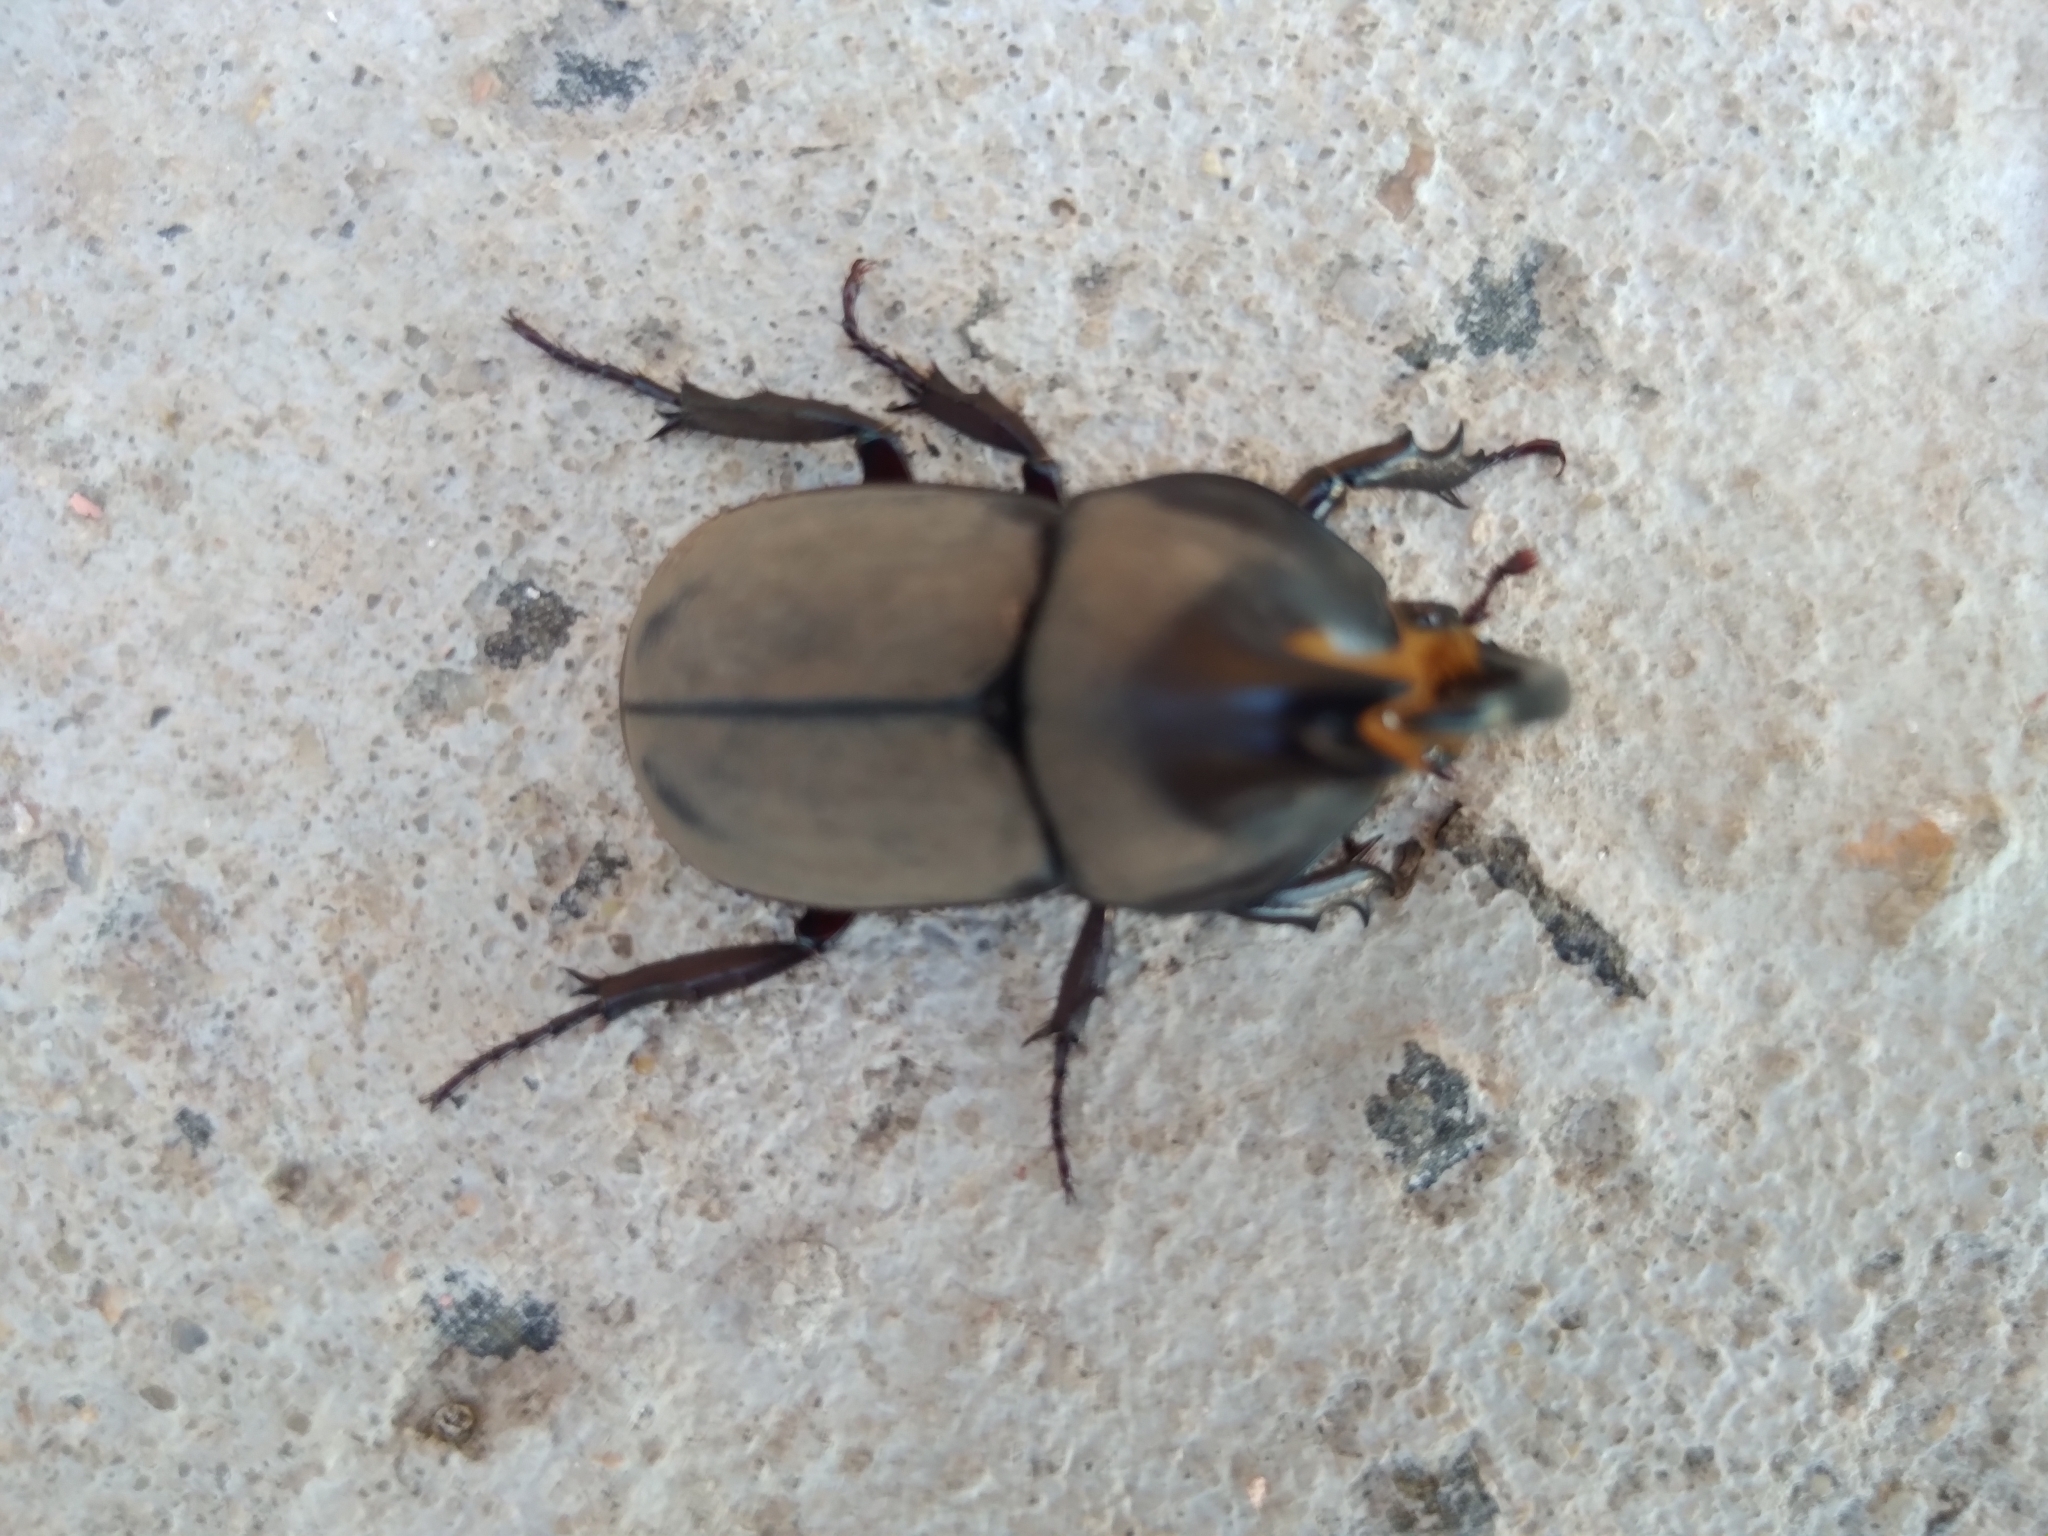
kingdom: Animalia
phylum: Arthropoda
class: Insecta
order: Coleoptera
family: Scarabaeidae
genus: Diloboderus
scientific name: Diloboderus abderus
